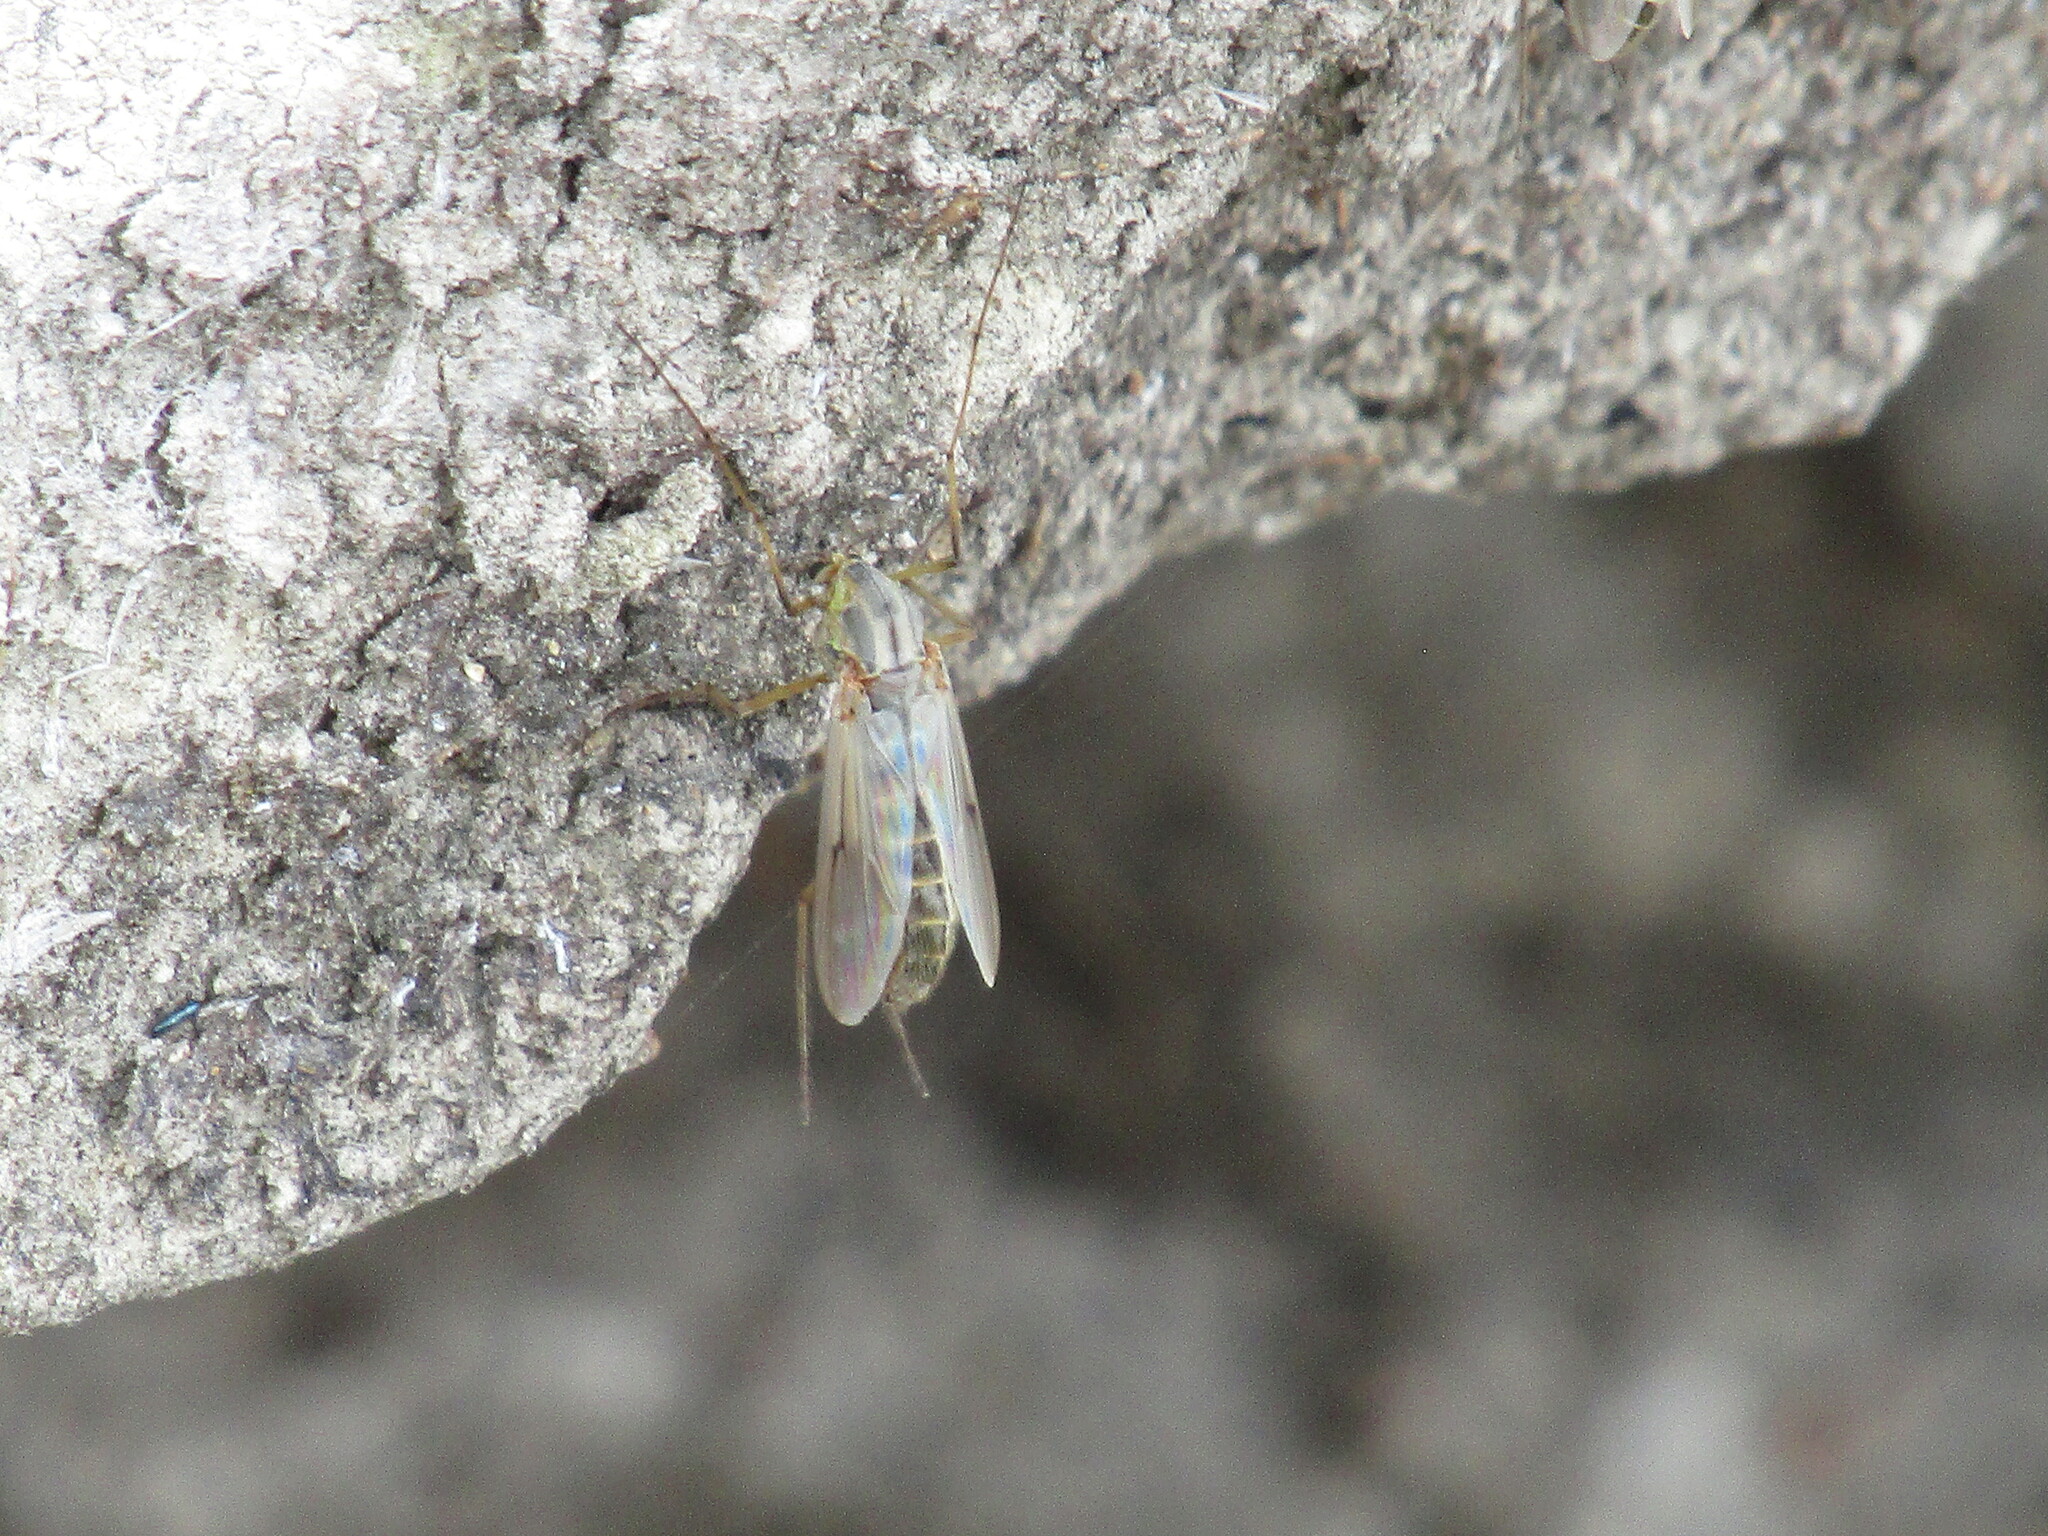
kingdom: Animalia
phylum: Arthropoda
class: Insecta
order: Diptera
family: Chironomidae
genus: Chironomus
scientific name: Chironomus
